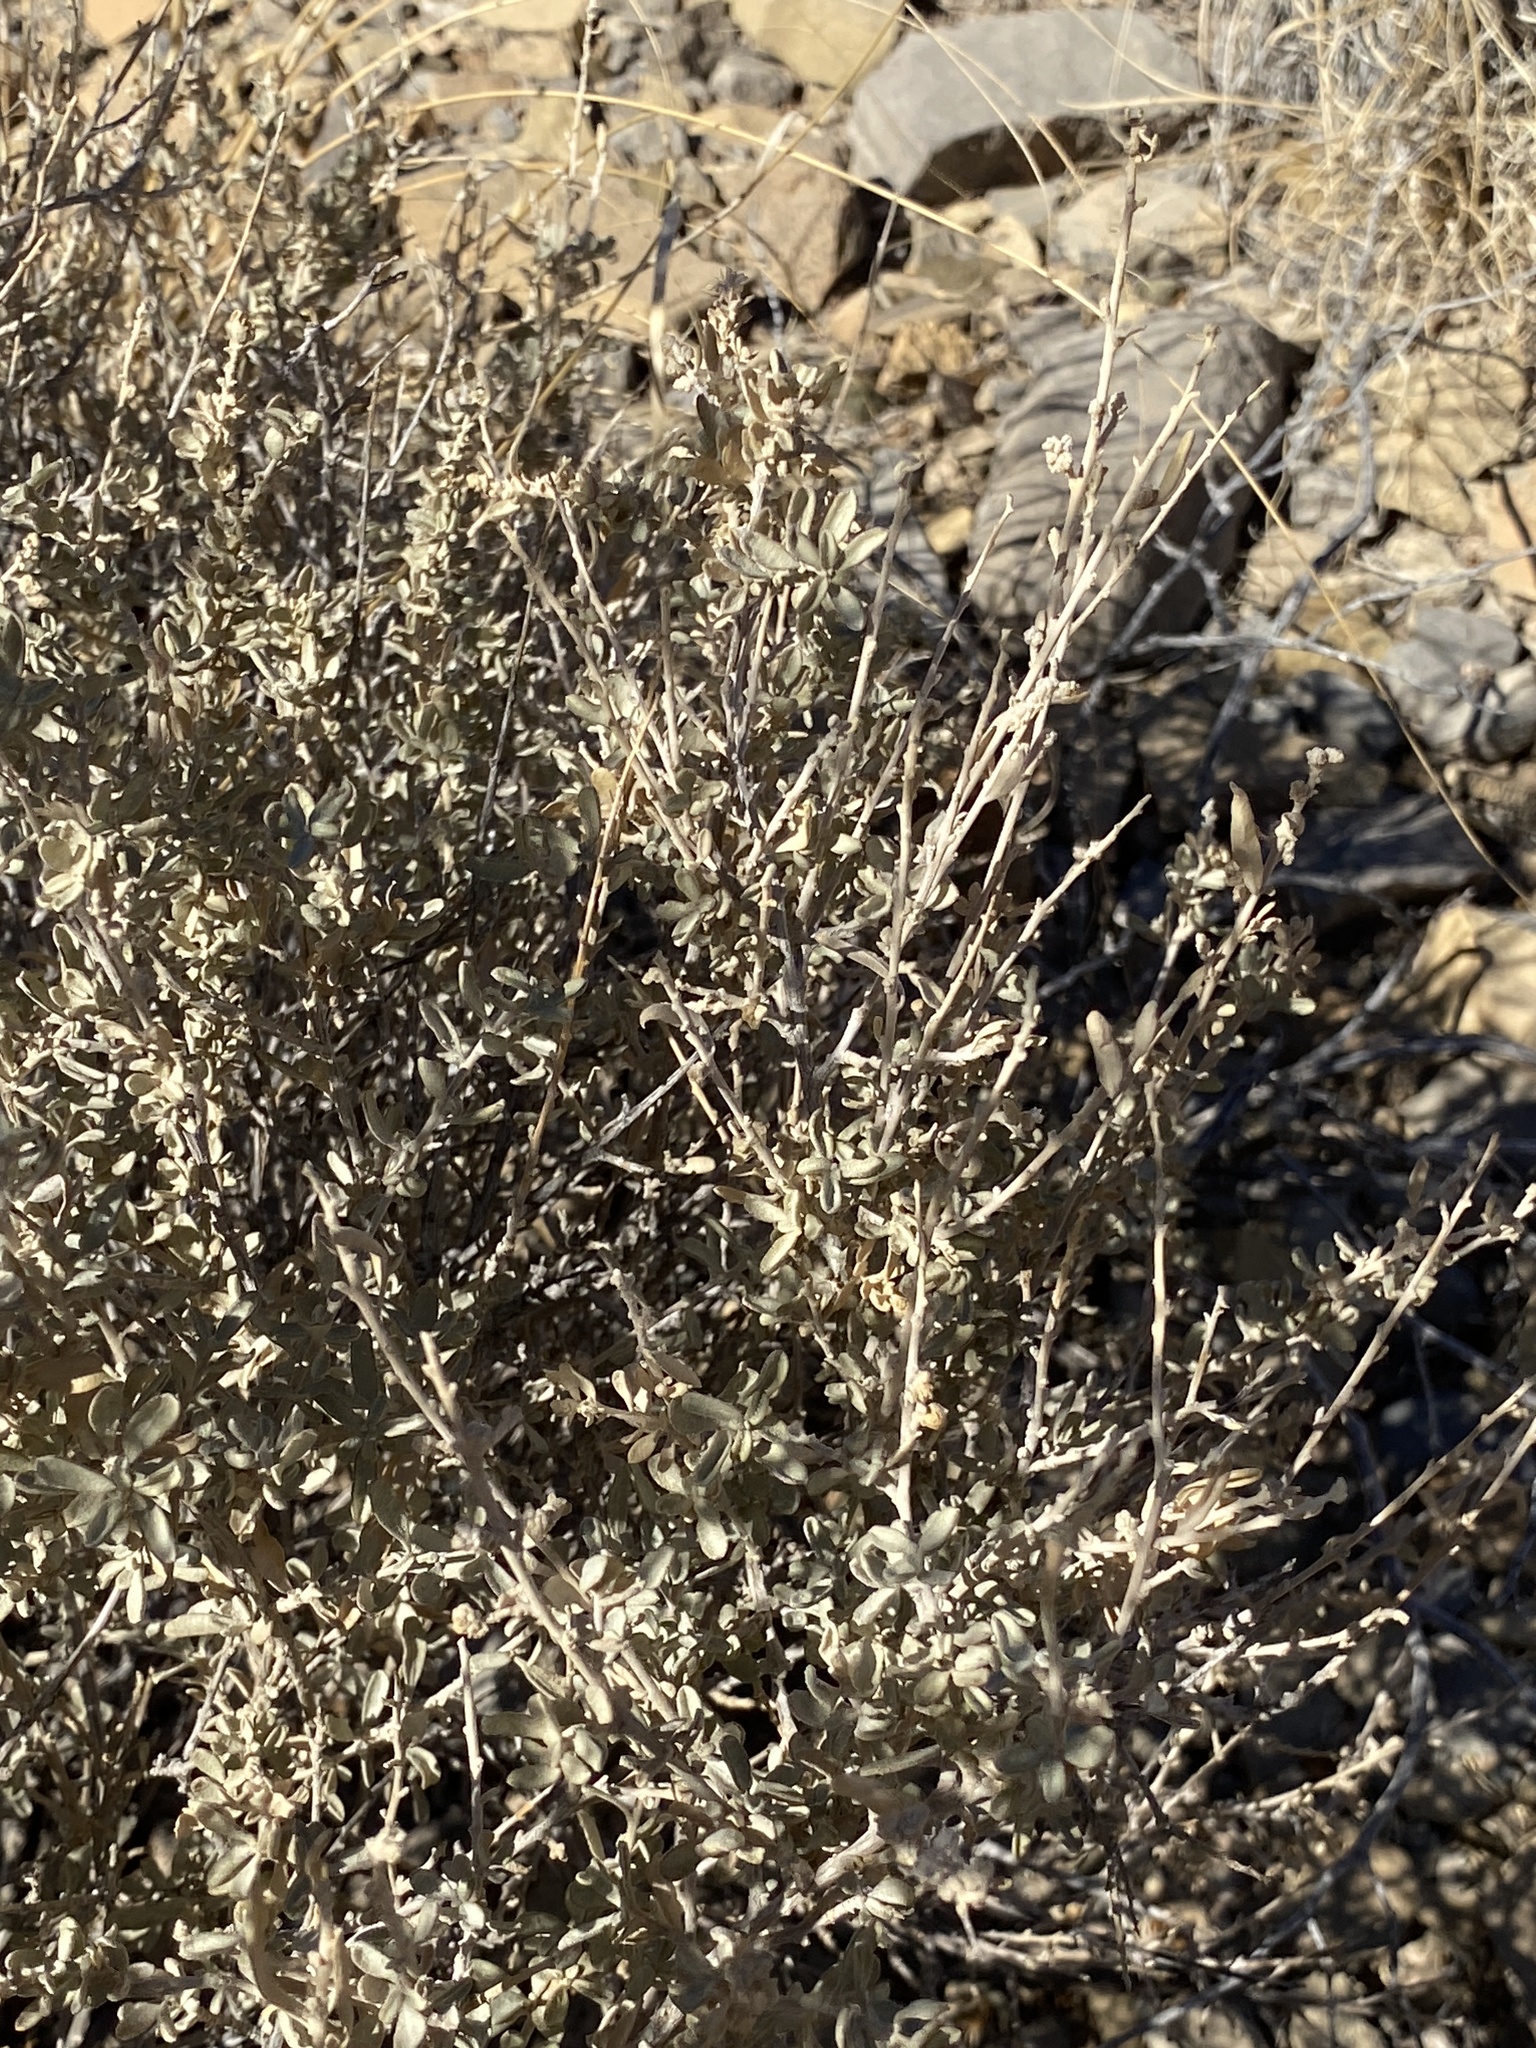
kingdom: Plantae
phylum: Tracheophyta
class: Magnoliopsida
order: Caryophyllales
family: Amaranthaceae
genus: Atriplex
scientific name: Atriplex canescens
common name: Four-wing saltbush
